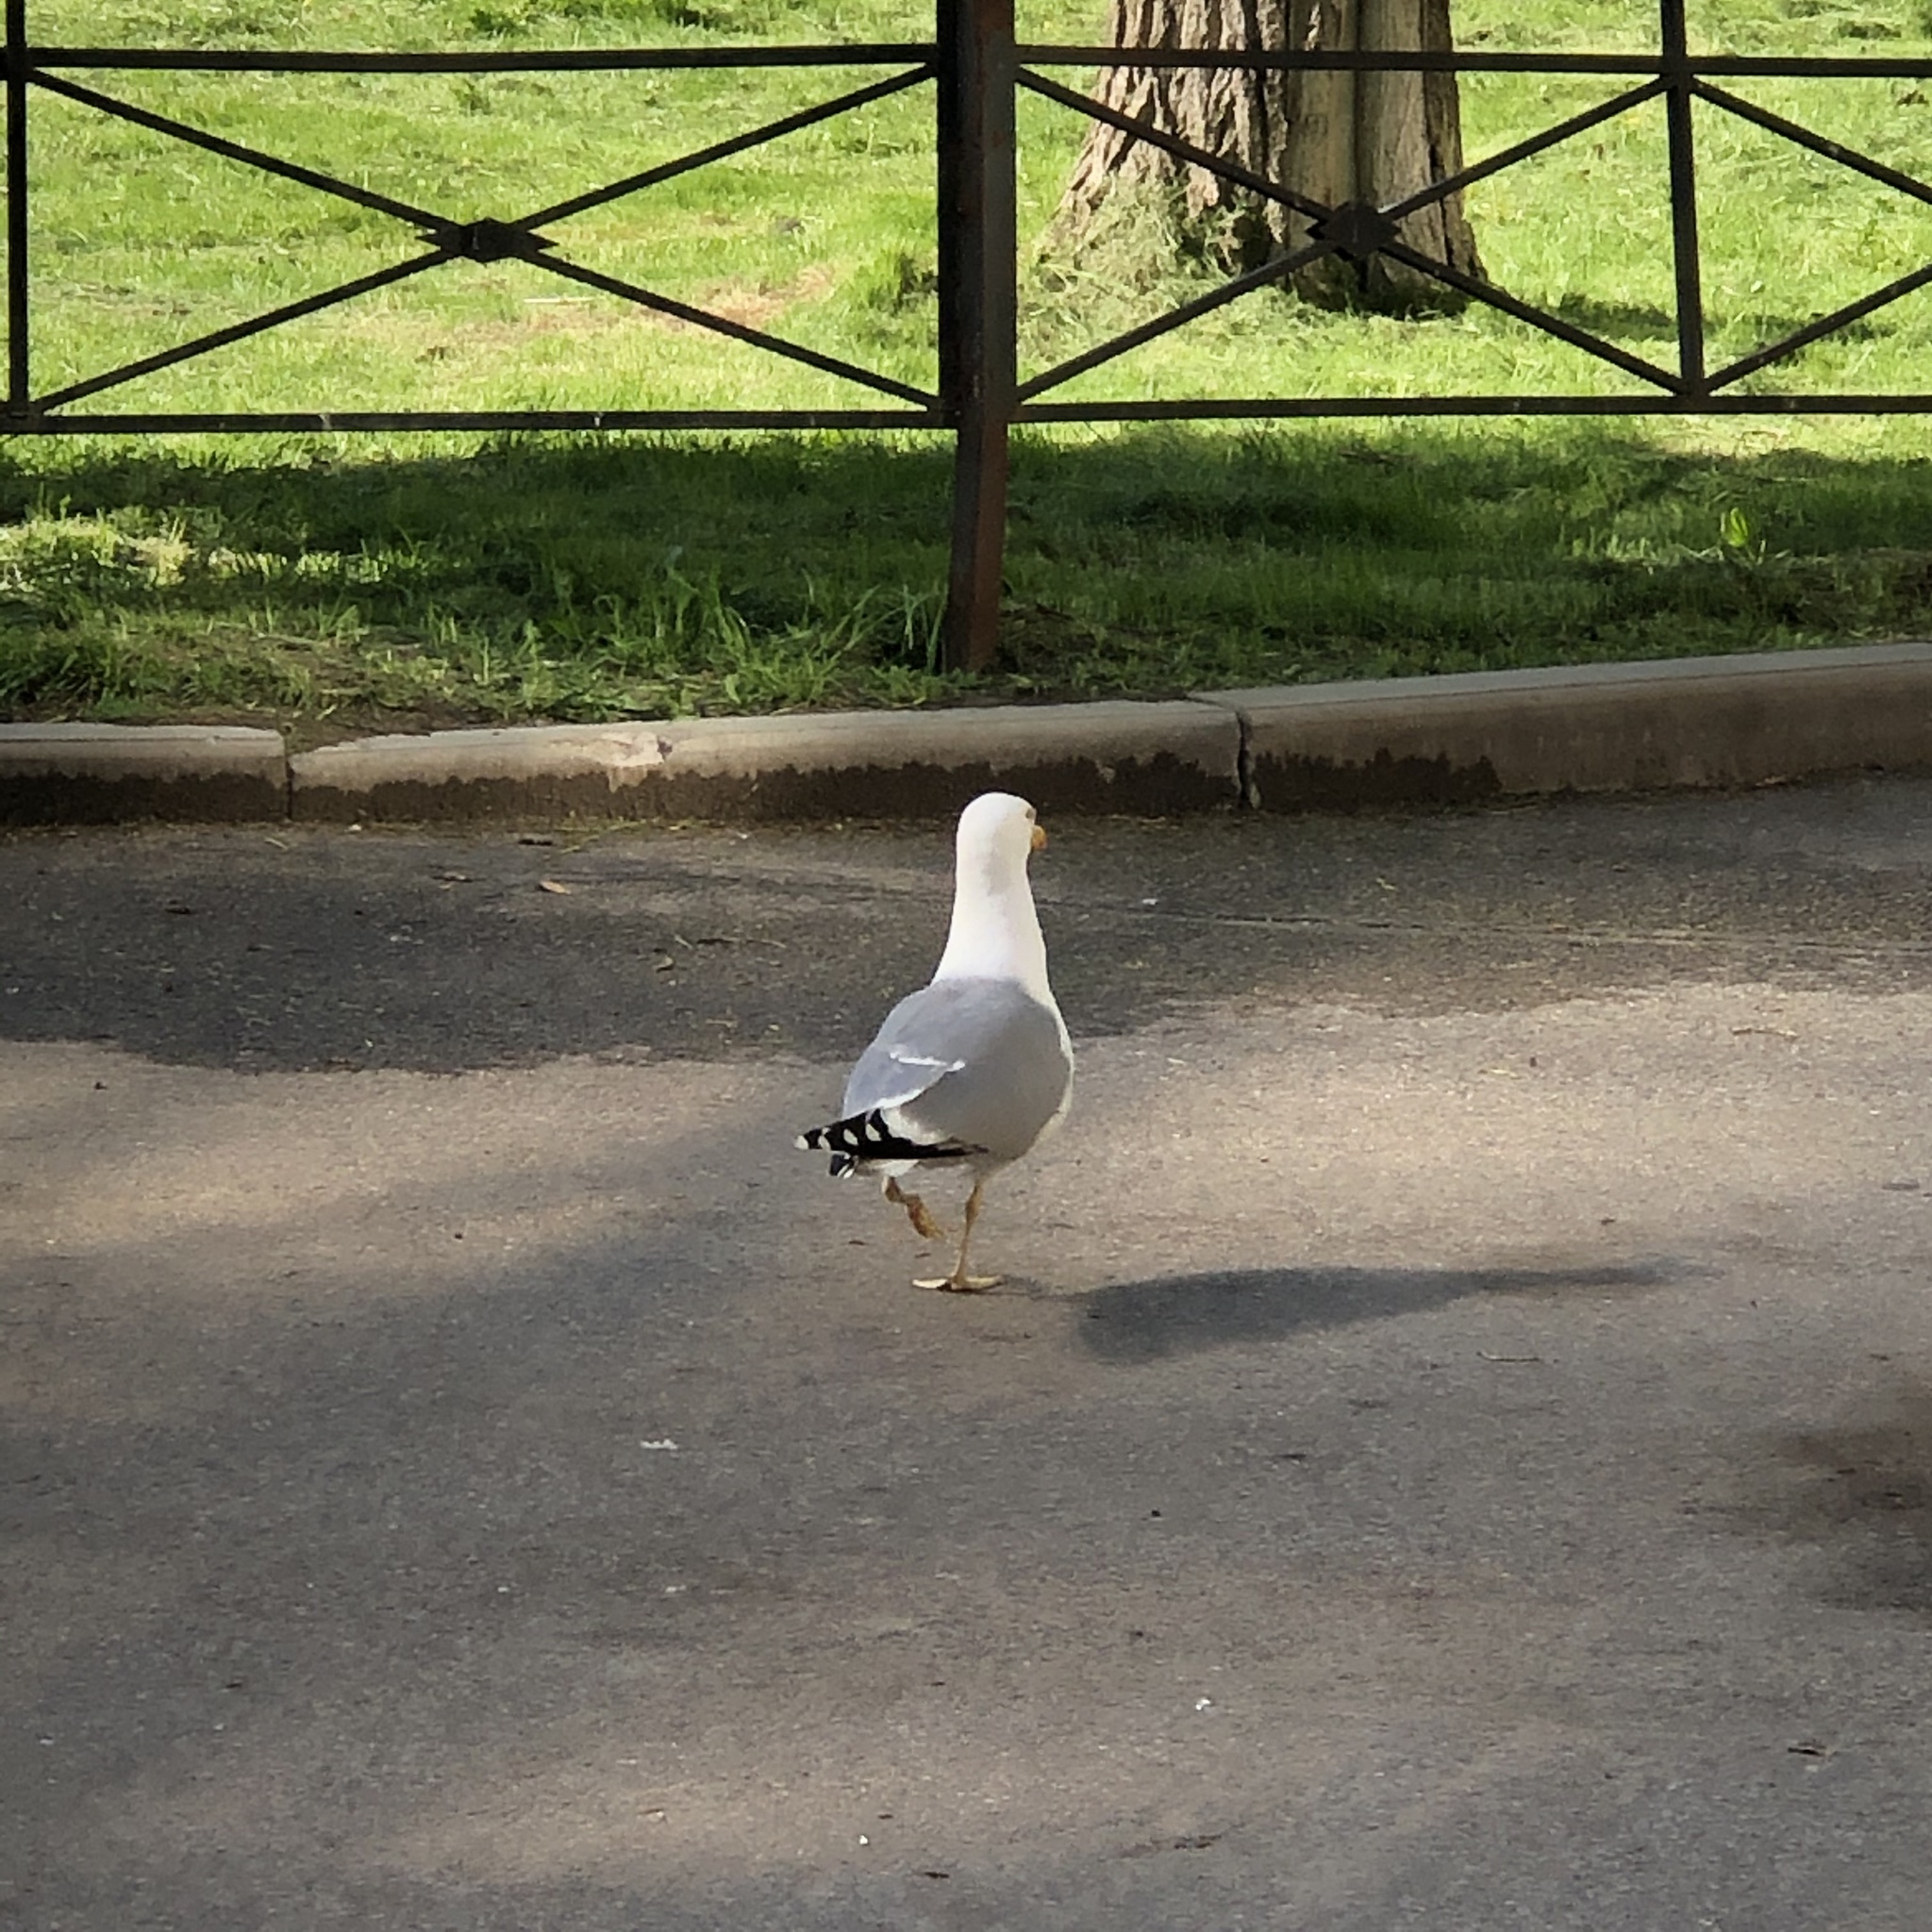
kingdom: Animalia
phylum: Chordata
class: Aves
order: Charadriiformes
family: Laridae
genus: Larus
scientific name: Larus argentatus
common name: Herring gull
